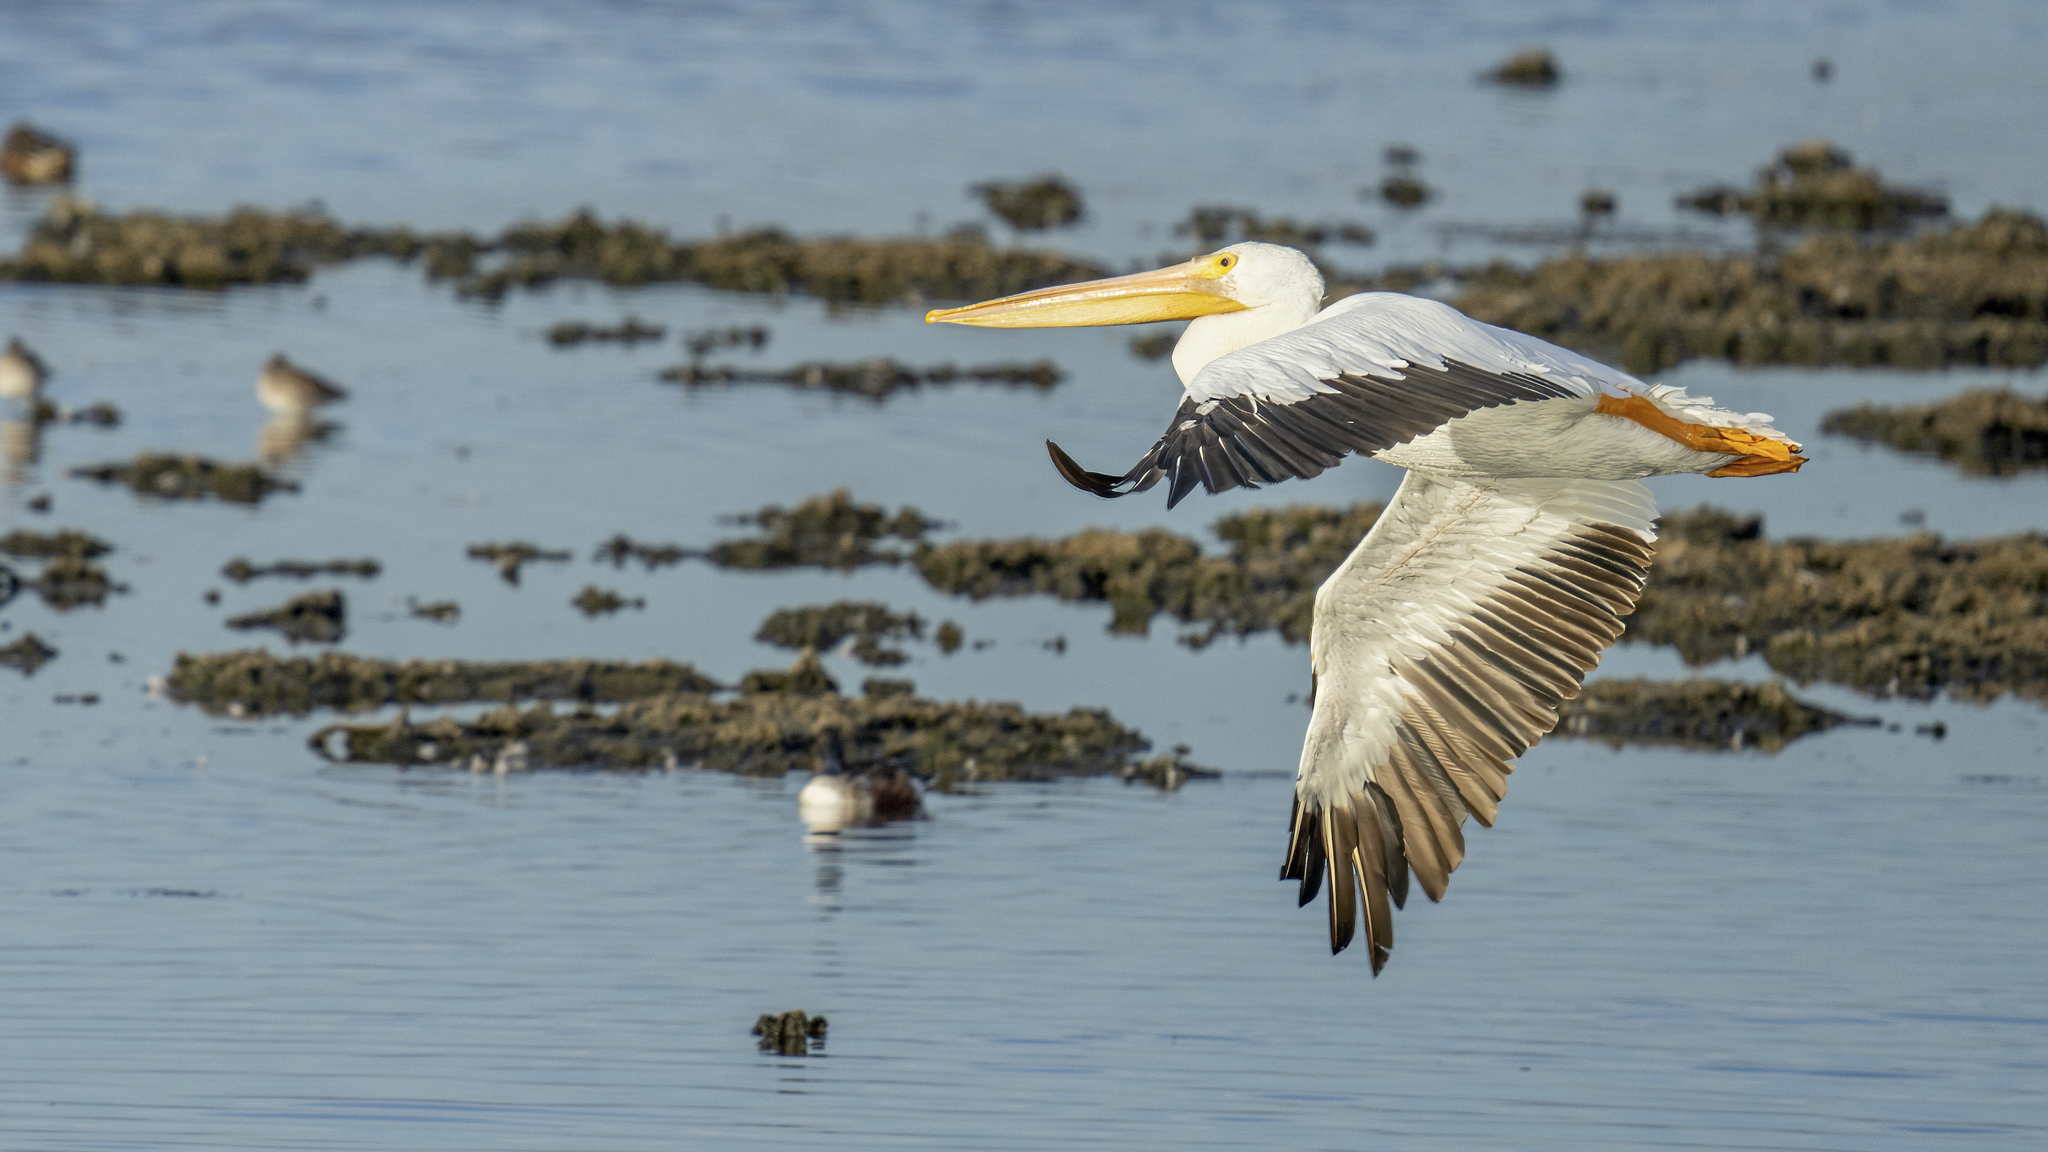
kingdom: Animalia
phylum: Chordata
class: Aves
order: Pelecaniformes
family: Pelecanidae
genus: Pelecanus
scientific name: Pelecanus erythrorhynchos
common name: American white pelican
